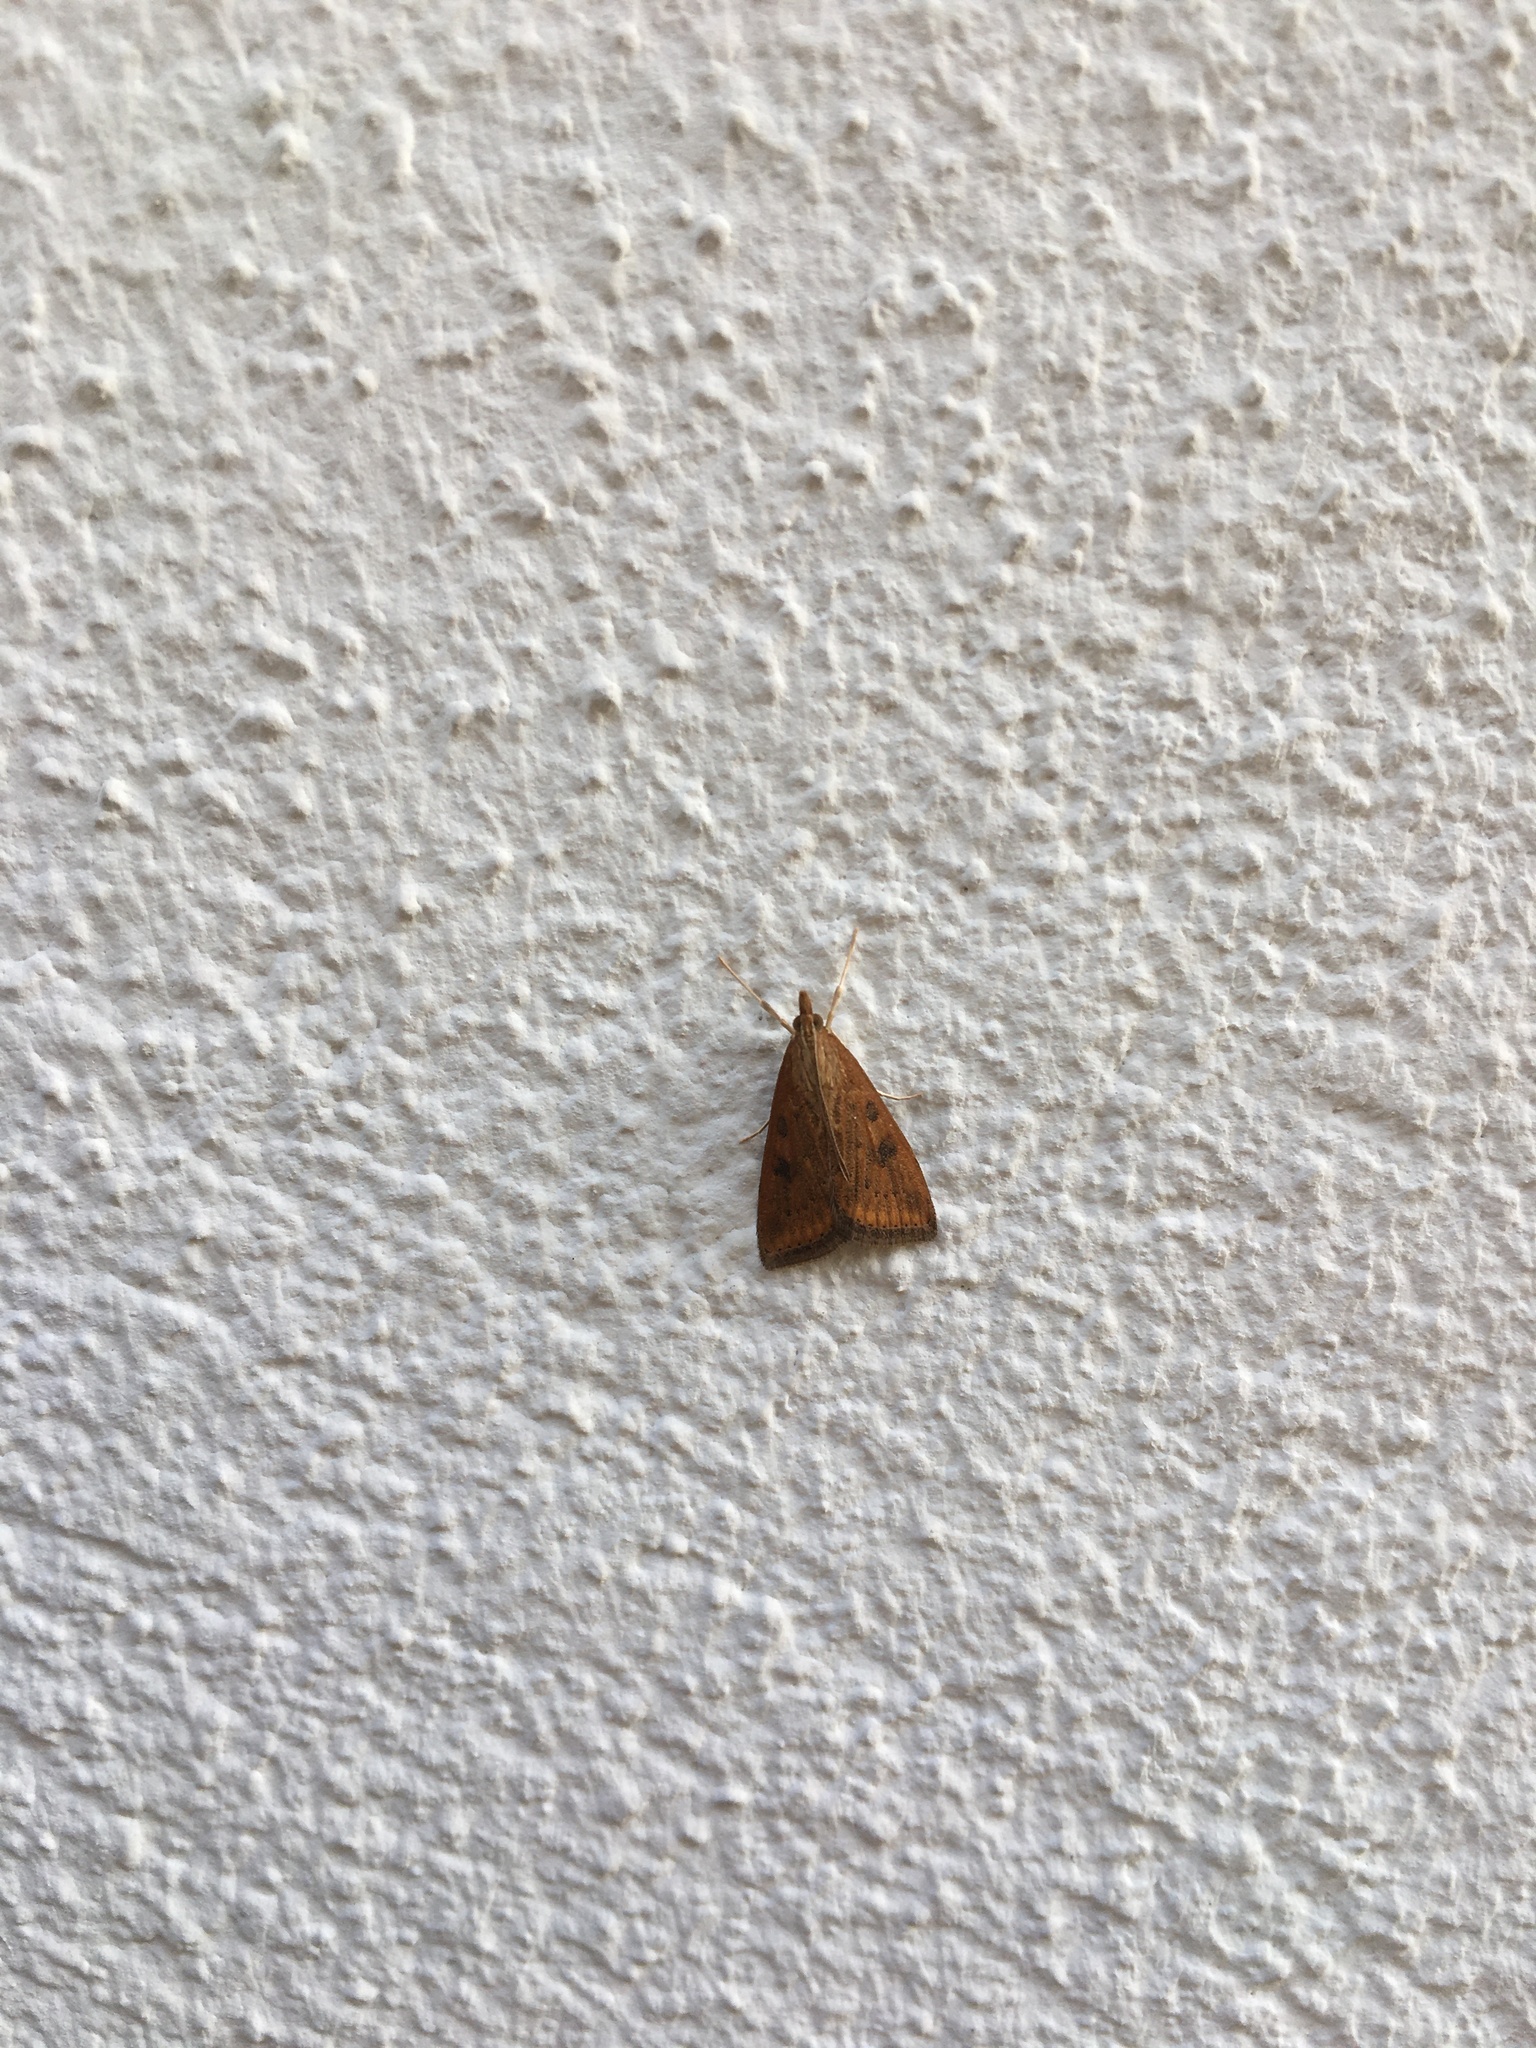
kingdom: Animalia
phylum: Arthropoda
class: Insecta
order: Lepidoptera
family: Crambidae
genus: Udea
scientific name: Udea ferrugalis
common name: Rusty dot
